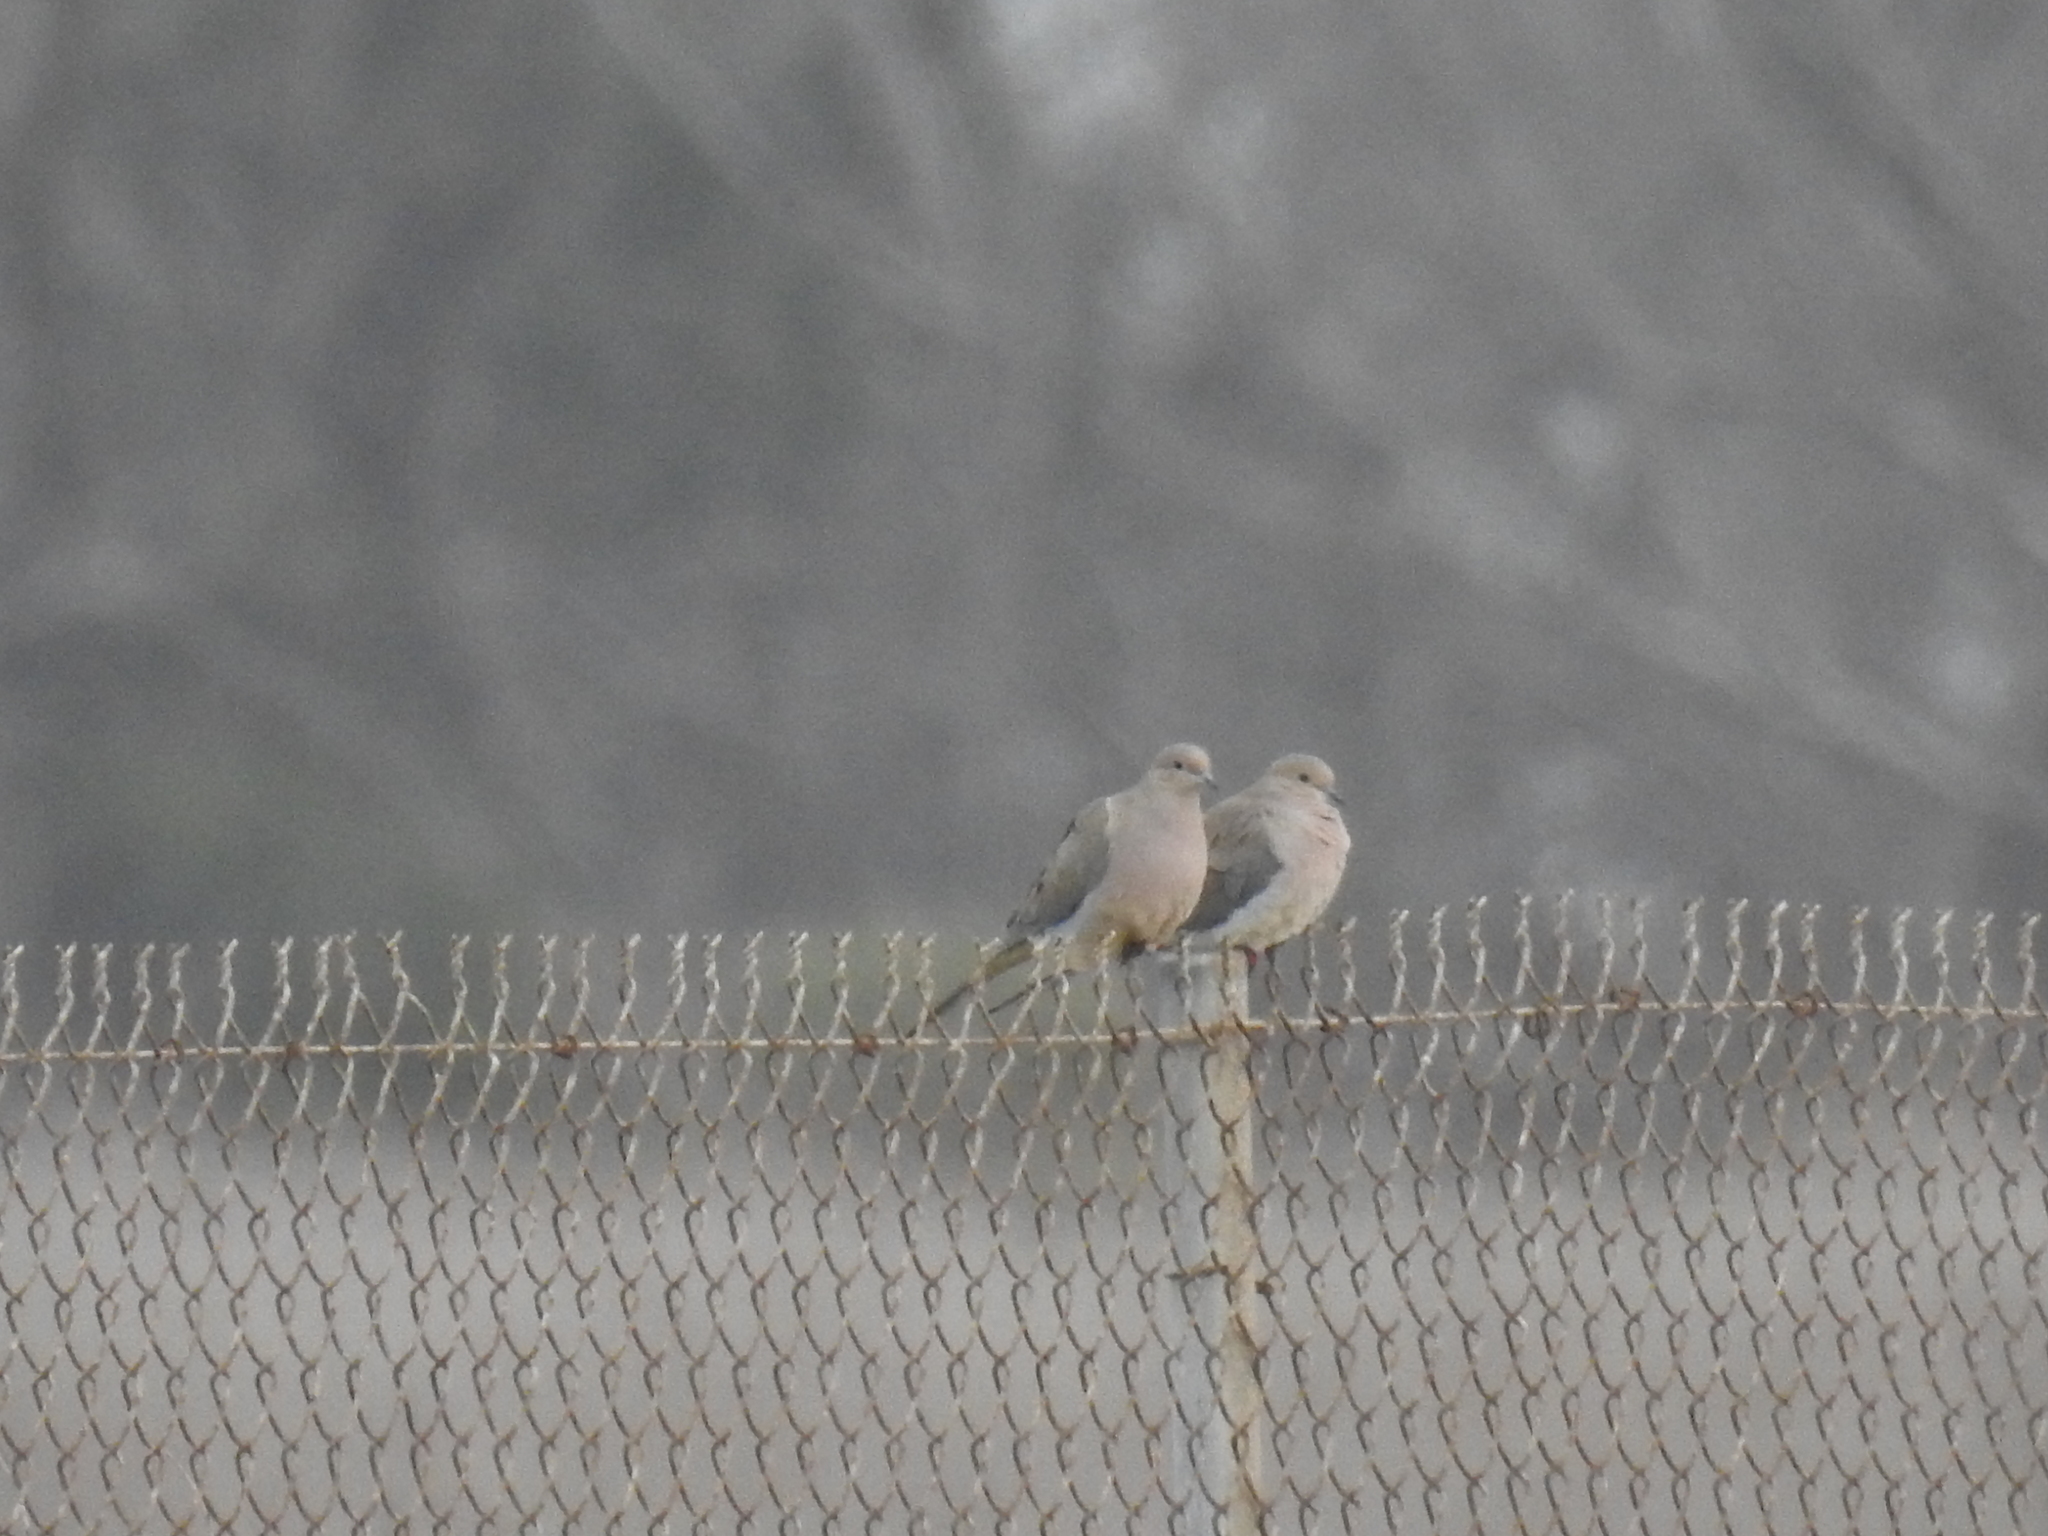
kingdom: Animalia
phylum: Chordata
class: Aves
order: Columbiformes
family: Columbidae
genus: Zenaida
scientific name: Zenaida macroura
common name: Mourning dove
